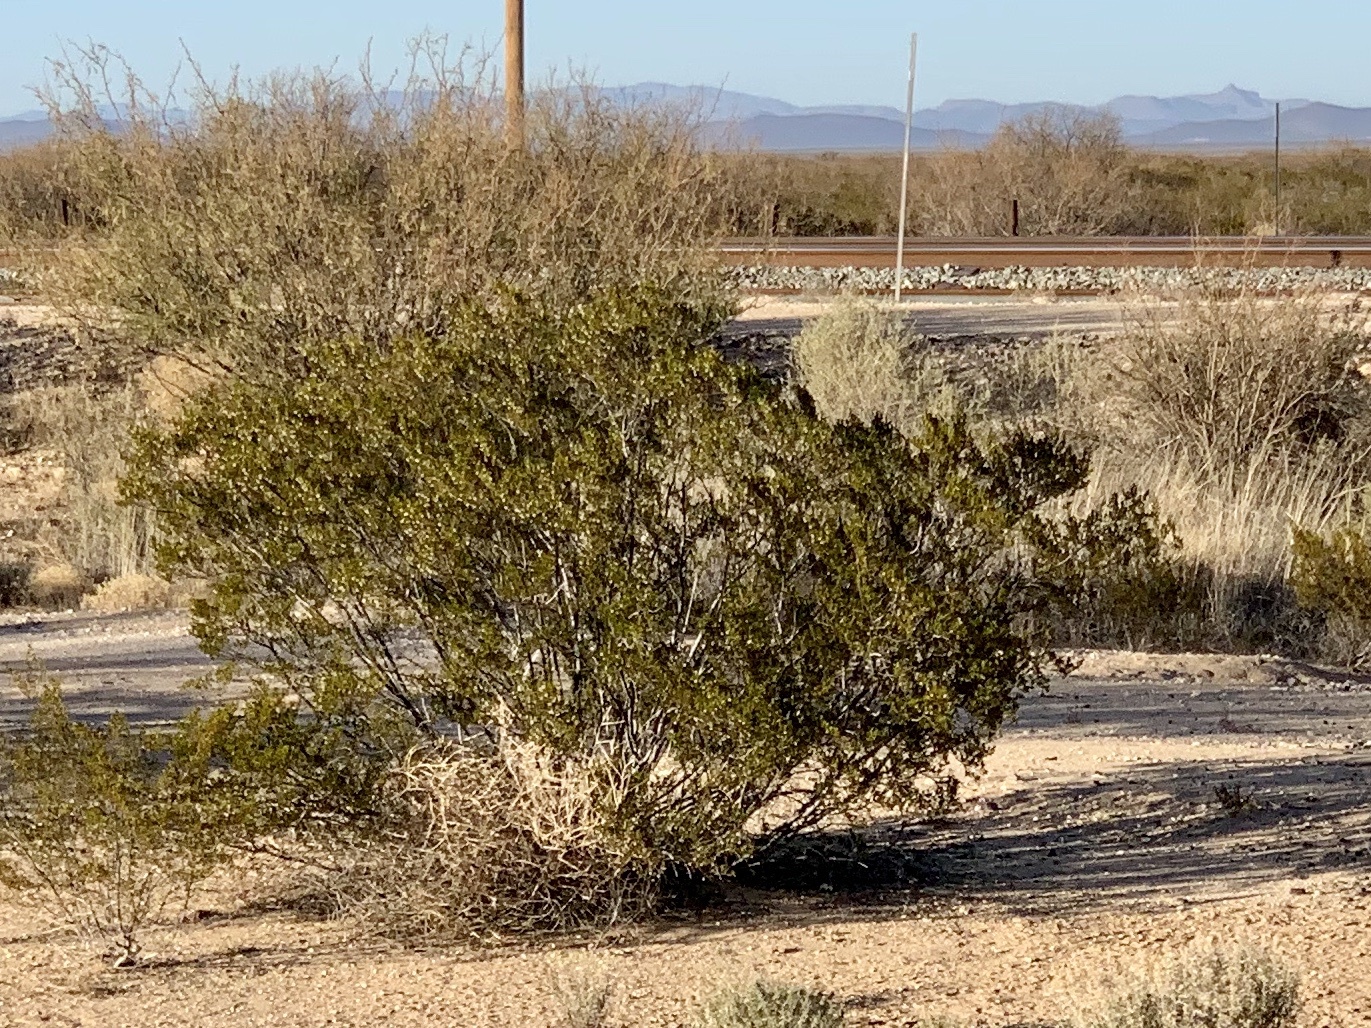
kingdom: Plantae
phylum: Tracheophyta
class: Magnoliopsida
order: Zygophyllales
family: Zygophyllaceae
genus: Larrea
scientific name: Larrea tridentata
